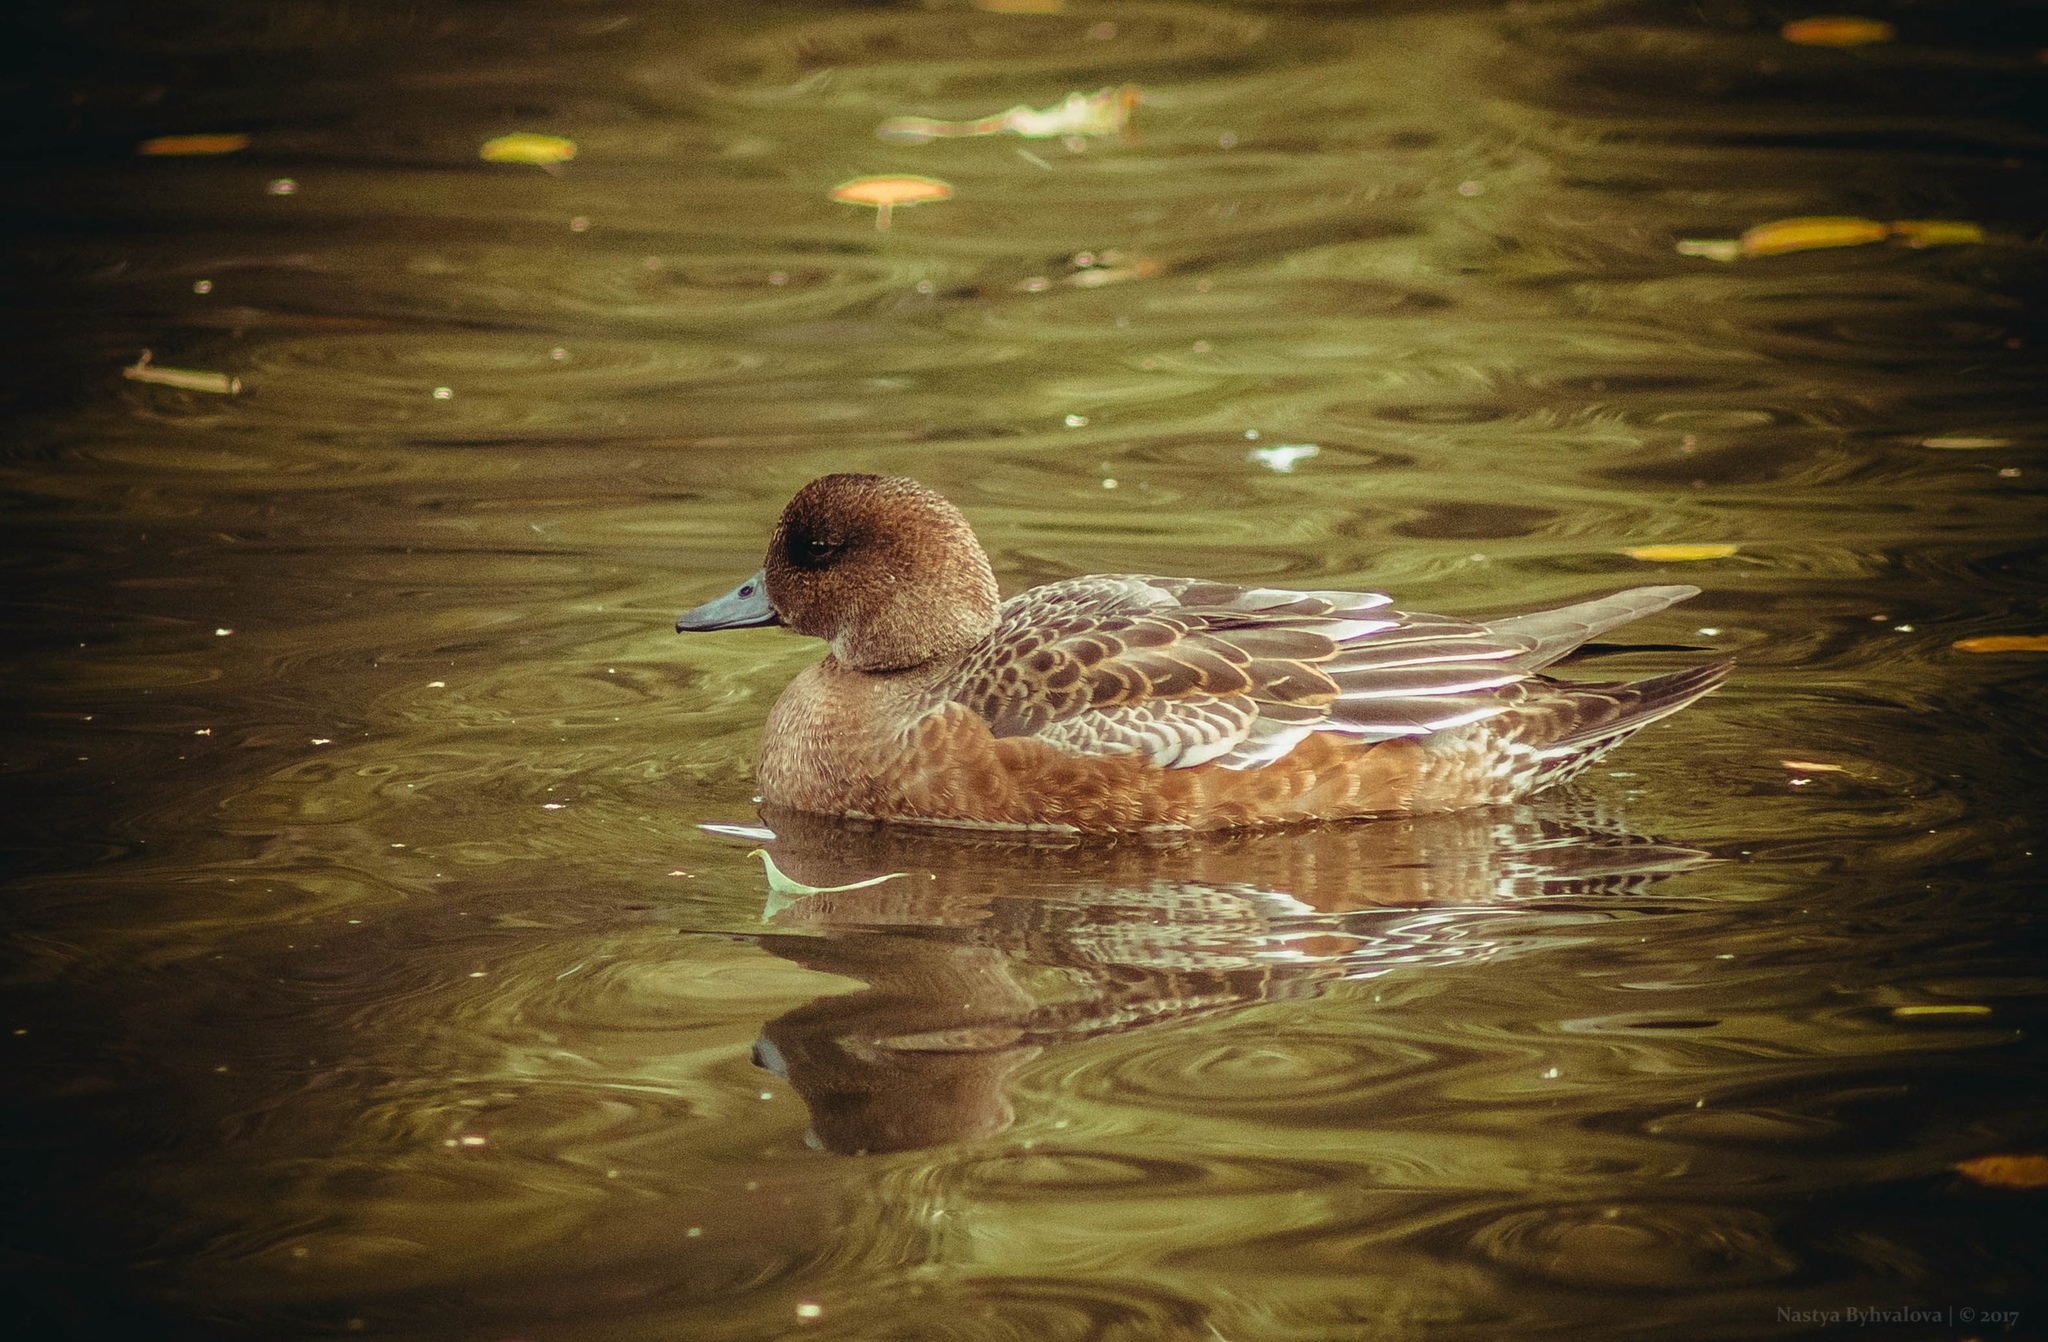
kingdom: Animalia
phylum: Chordata
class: Aves
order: Anseriformes
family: Anatidae
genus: Mareca
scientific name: Mareca penelope
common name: Eurasian wigeon
